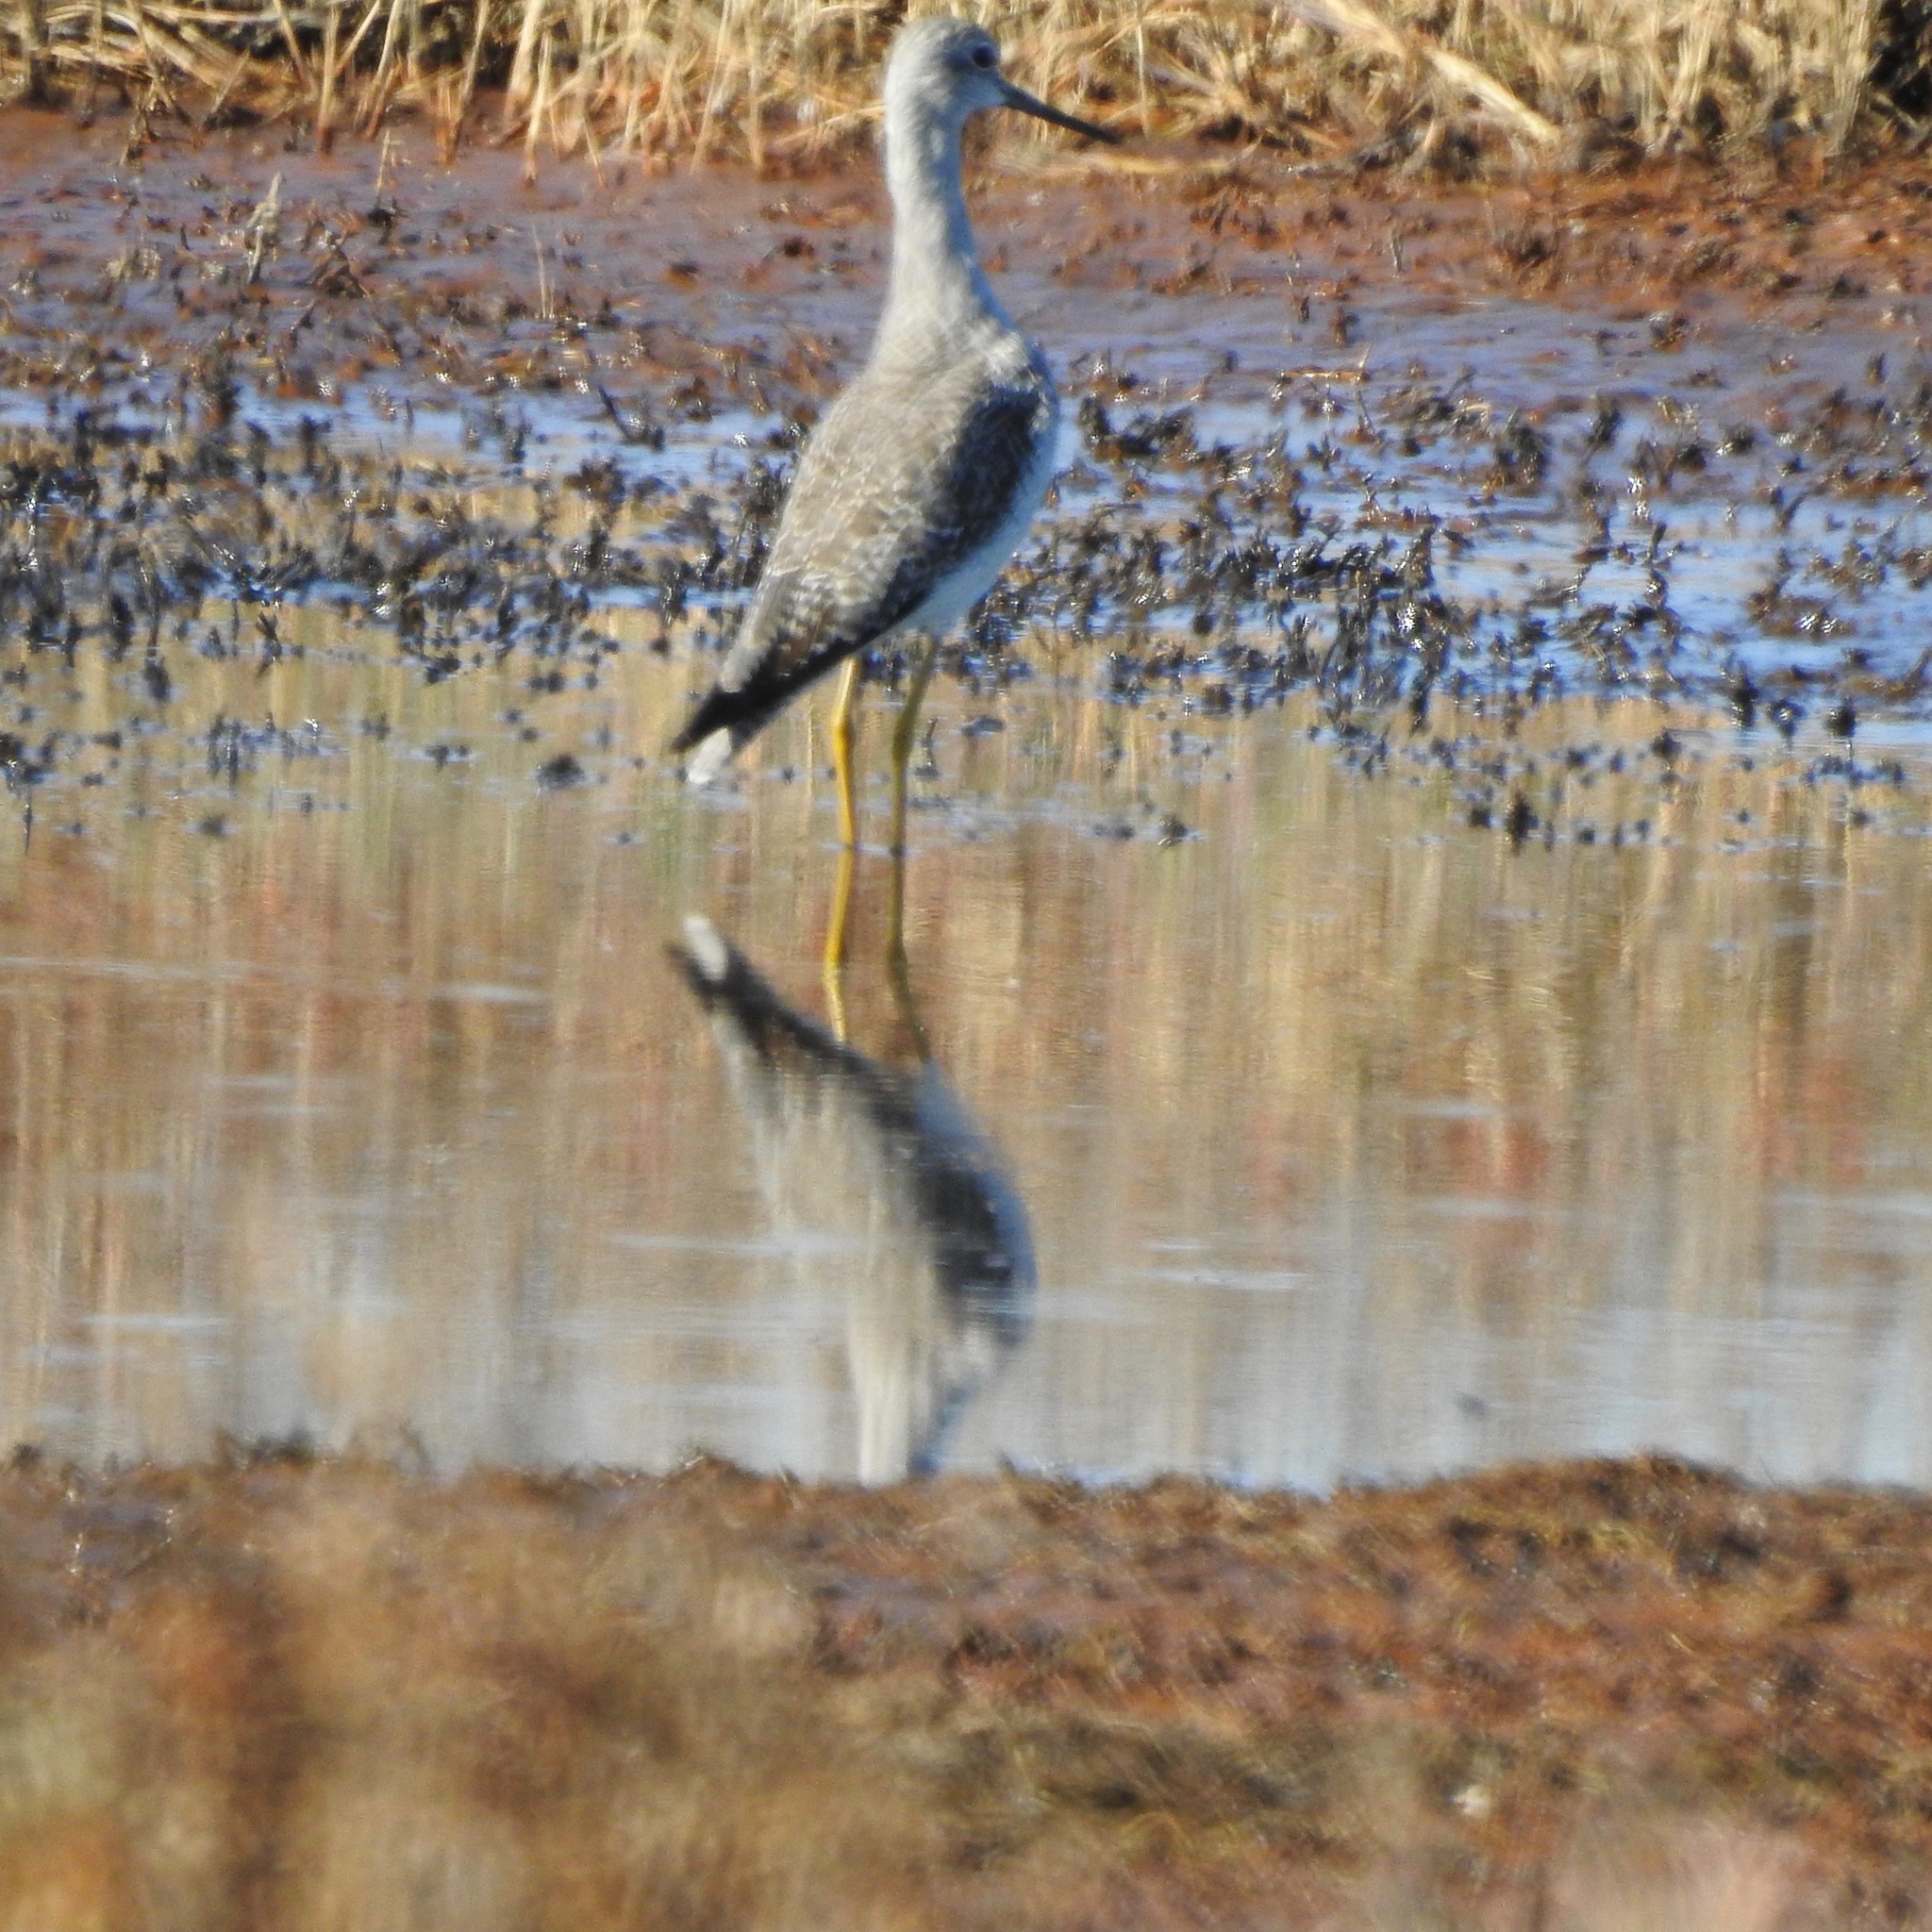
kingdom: Animalia
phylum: Chordata
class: Aves
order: Charadriiformes
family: Scolopacidae
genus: Tringa
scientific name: Tringa melanoleuca
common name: Greater yellowlegs
